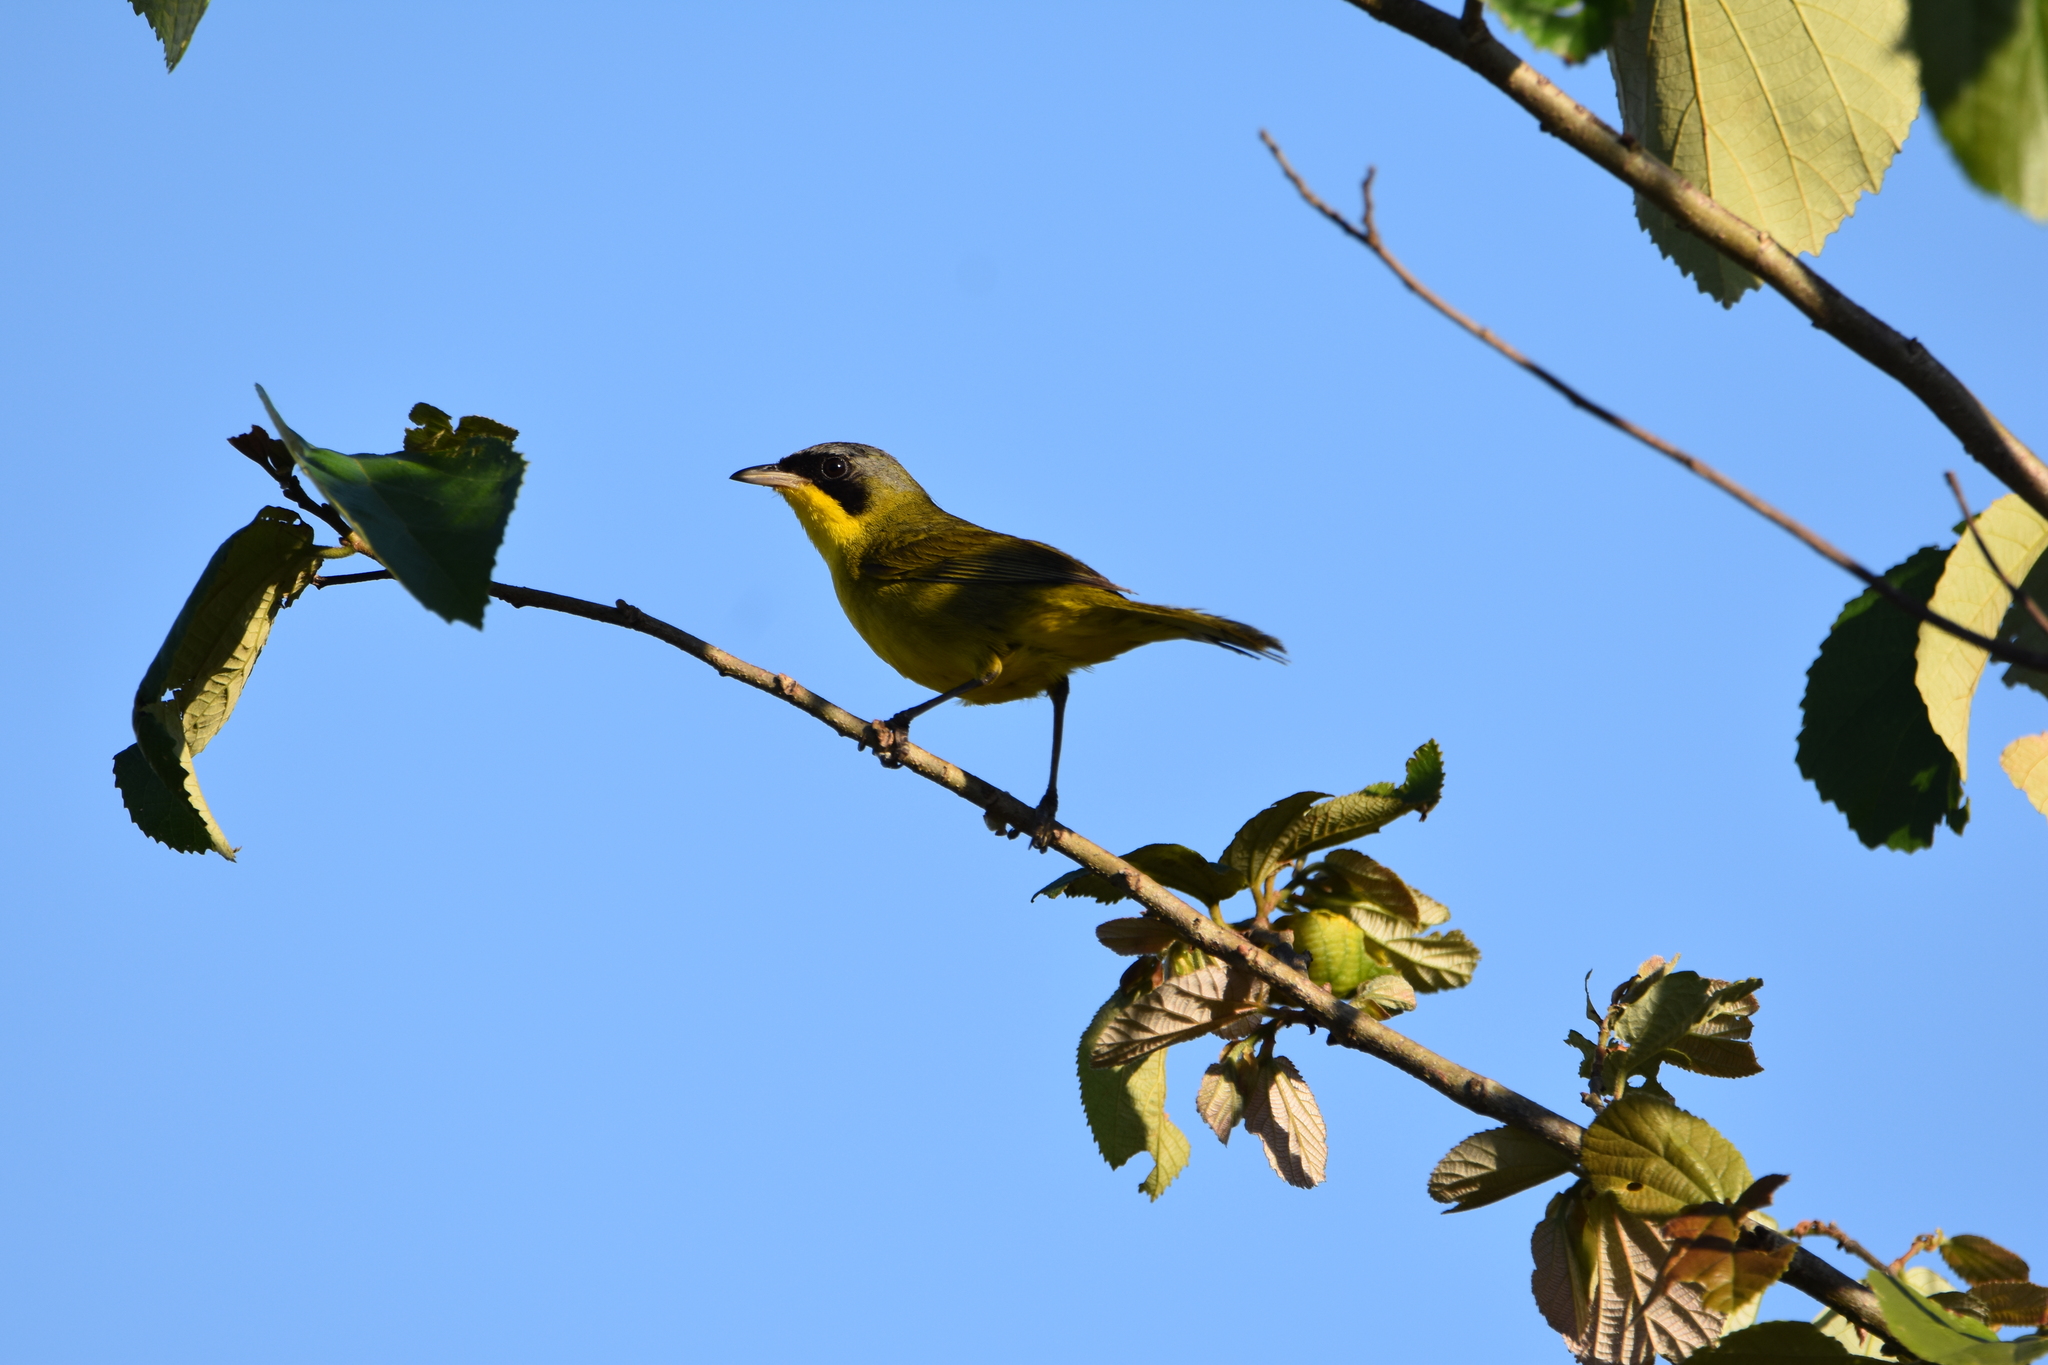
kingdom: Animalia
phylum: Chordata
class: Aves
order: Passeriformes
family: Parulidae
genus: Geothlypis
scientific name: Geothlypis velata
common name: Southern yellowthroat
